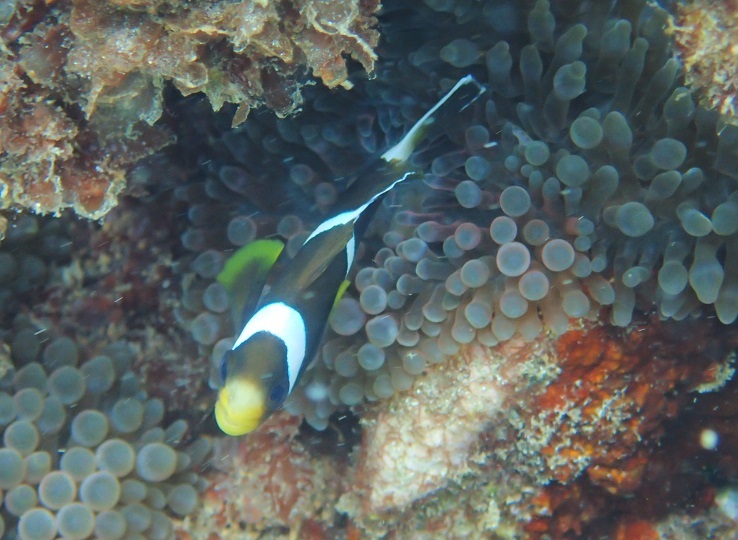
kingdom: Animalia
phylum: Chordata
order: Perciformes
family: Pomacentridae
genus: Amphiprion
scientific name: Amphiprion akindynos
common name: Barrier reef anemonefish
